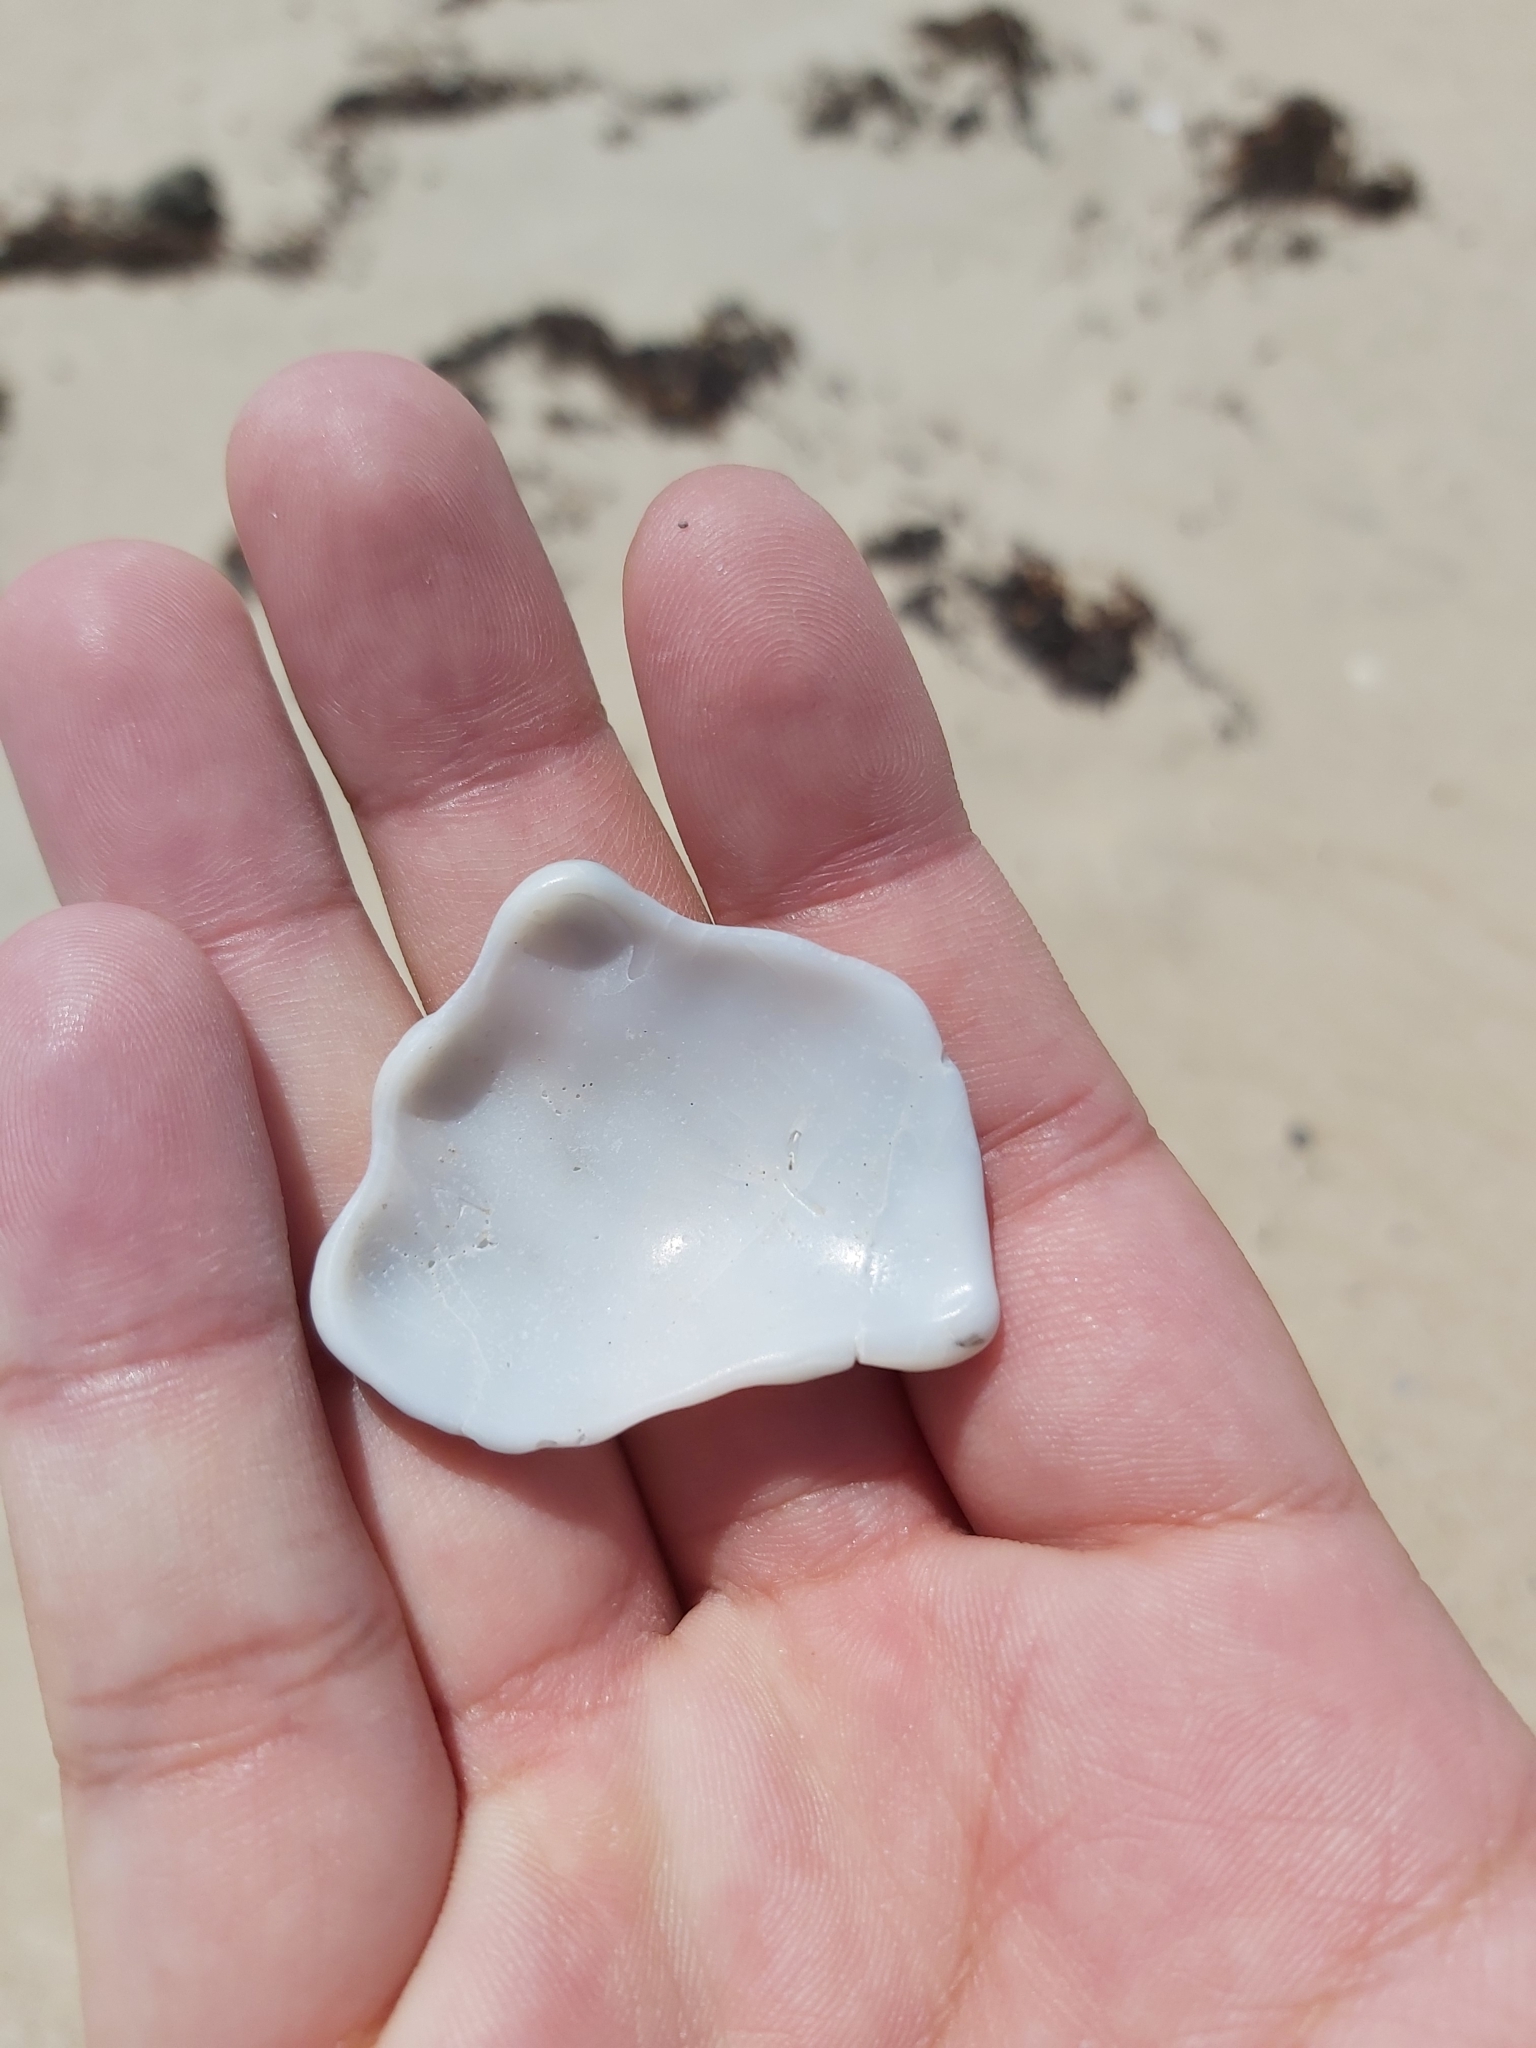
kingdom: Animalia
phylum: Mollusca
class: Gastropoda
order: Littorinimorpha
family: Cymatiidae
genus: Cabestana
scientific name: Cabestana spengleri
